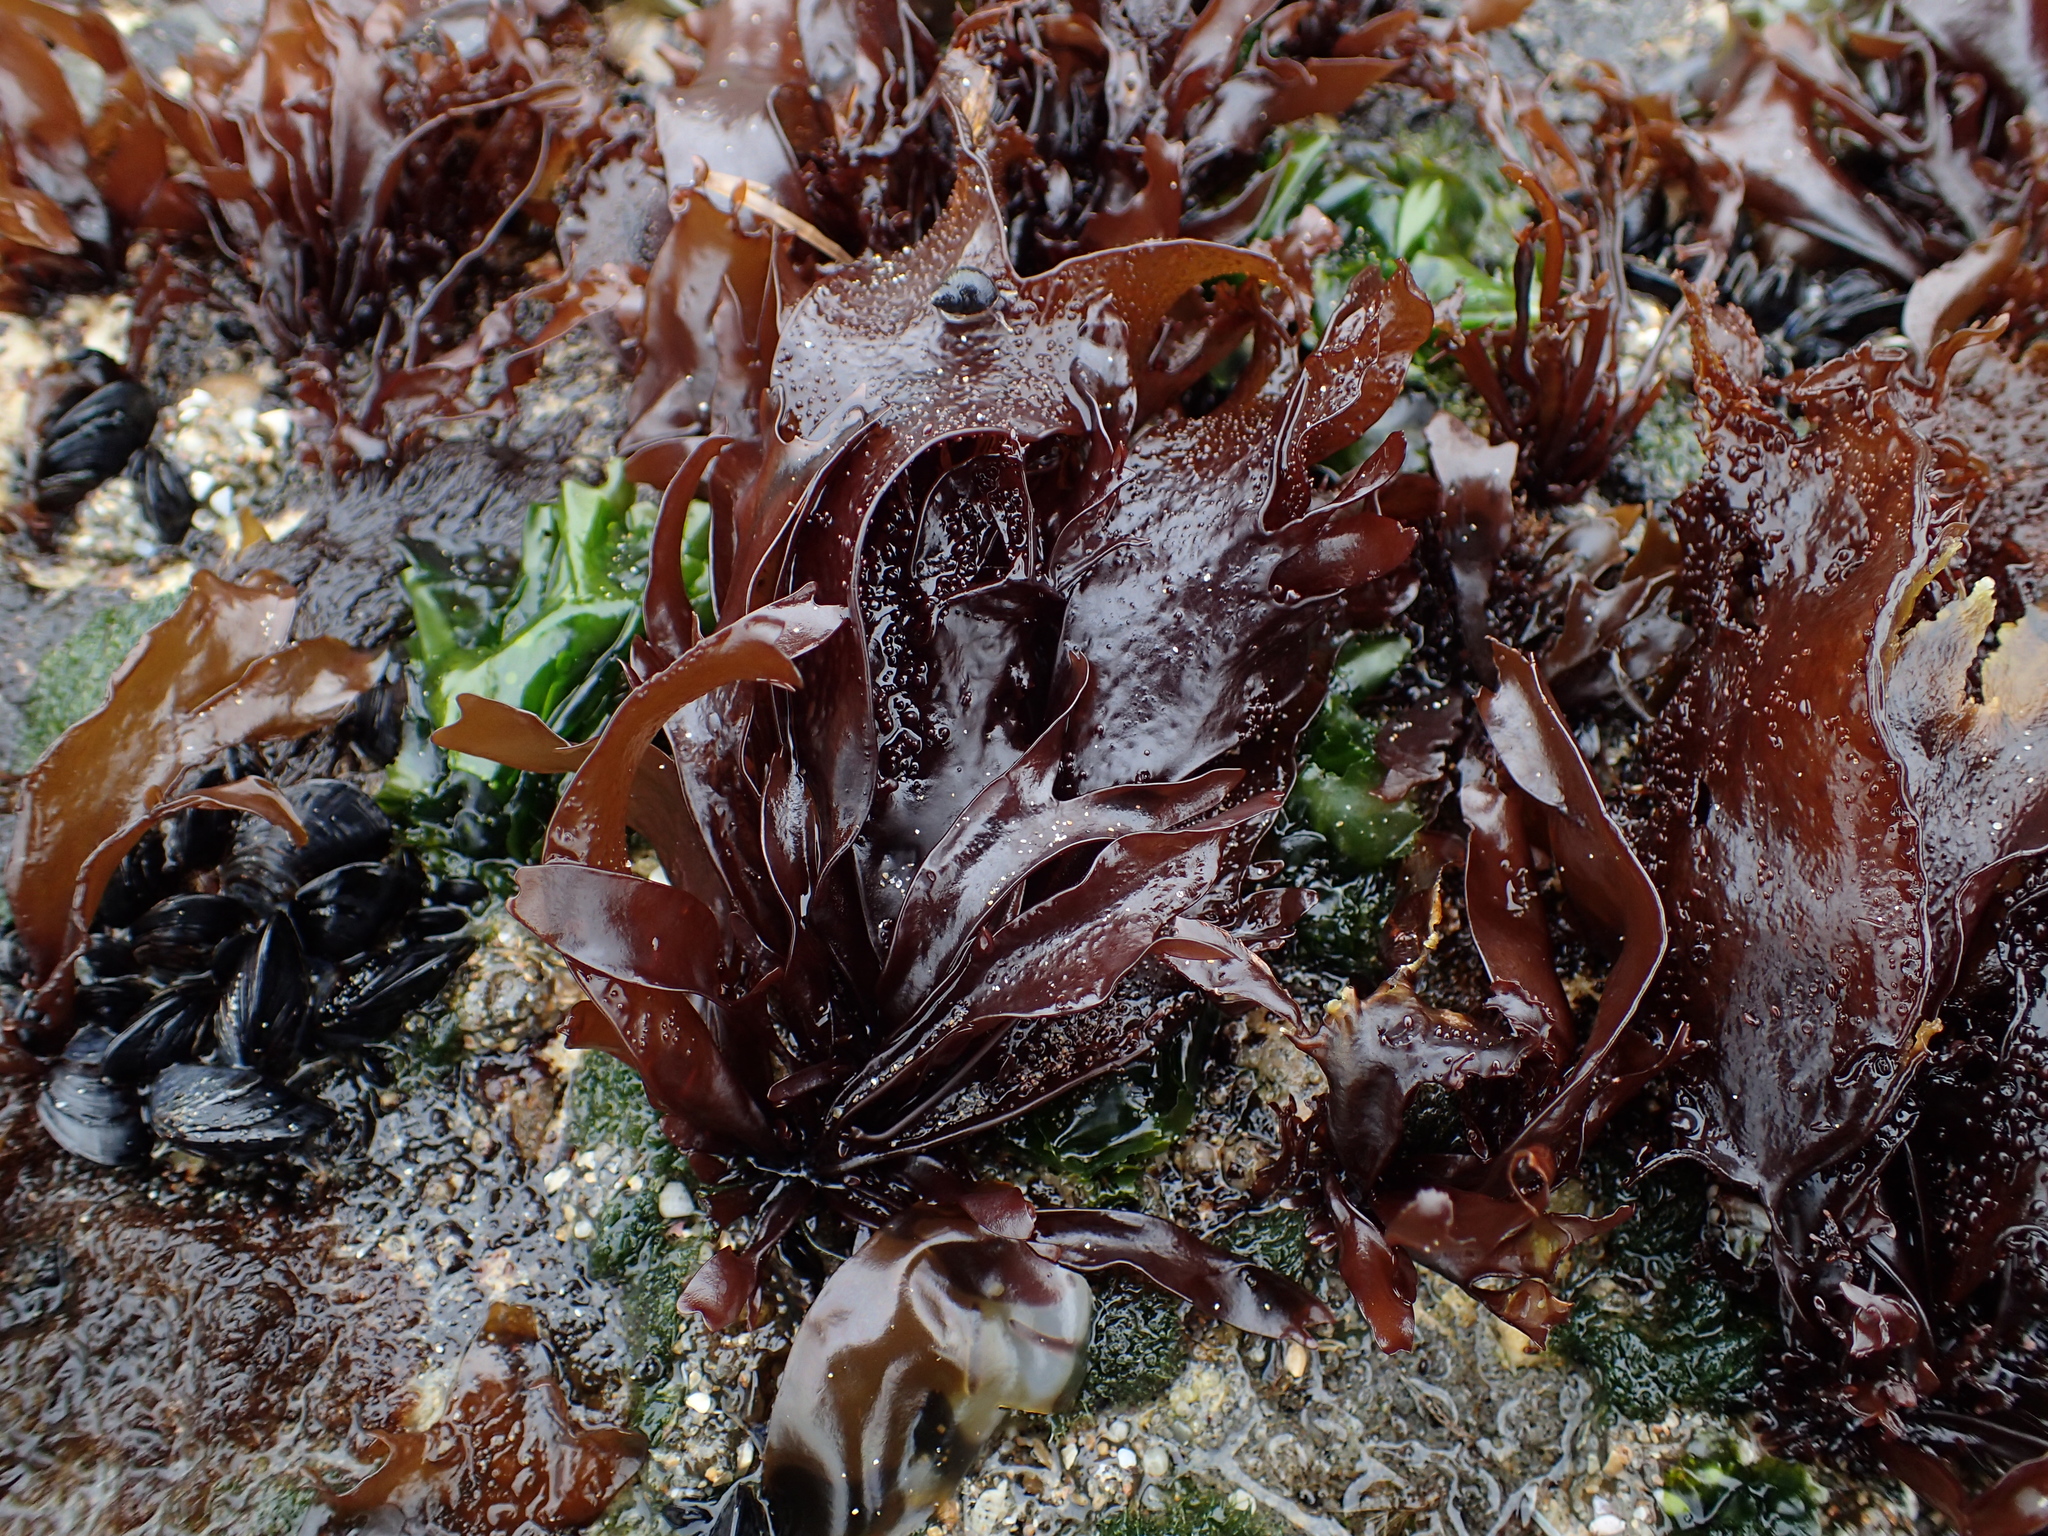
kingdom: Plantae
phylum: Rhodophyta
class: Florideophyceae
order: Gigartinales
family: Phyllophoraceae
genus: Mastocarpus
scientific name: Mastocarpus papillatus
